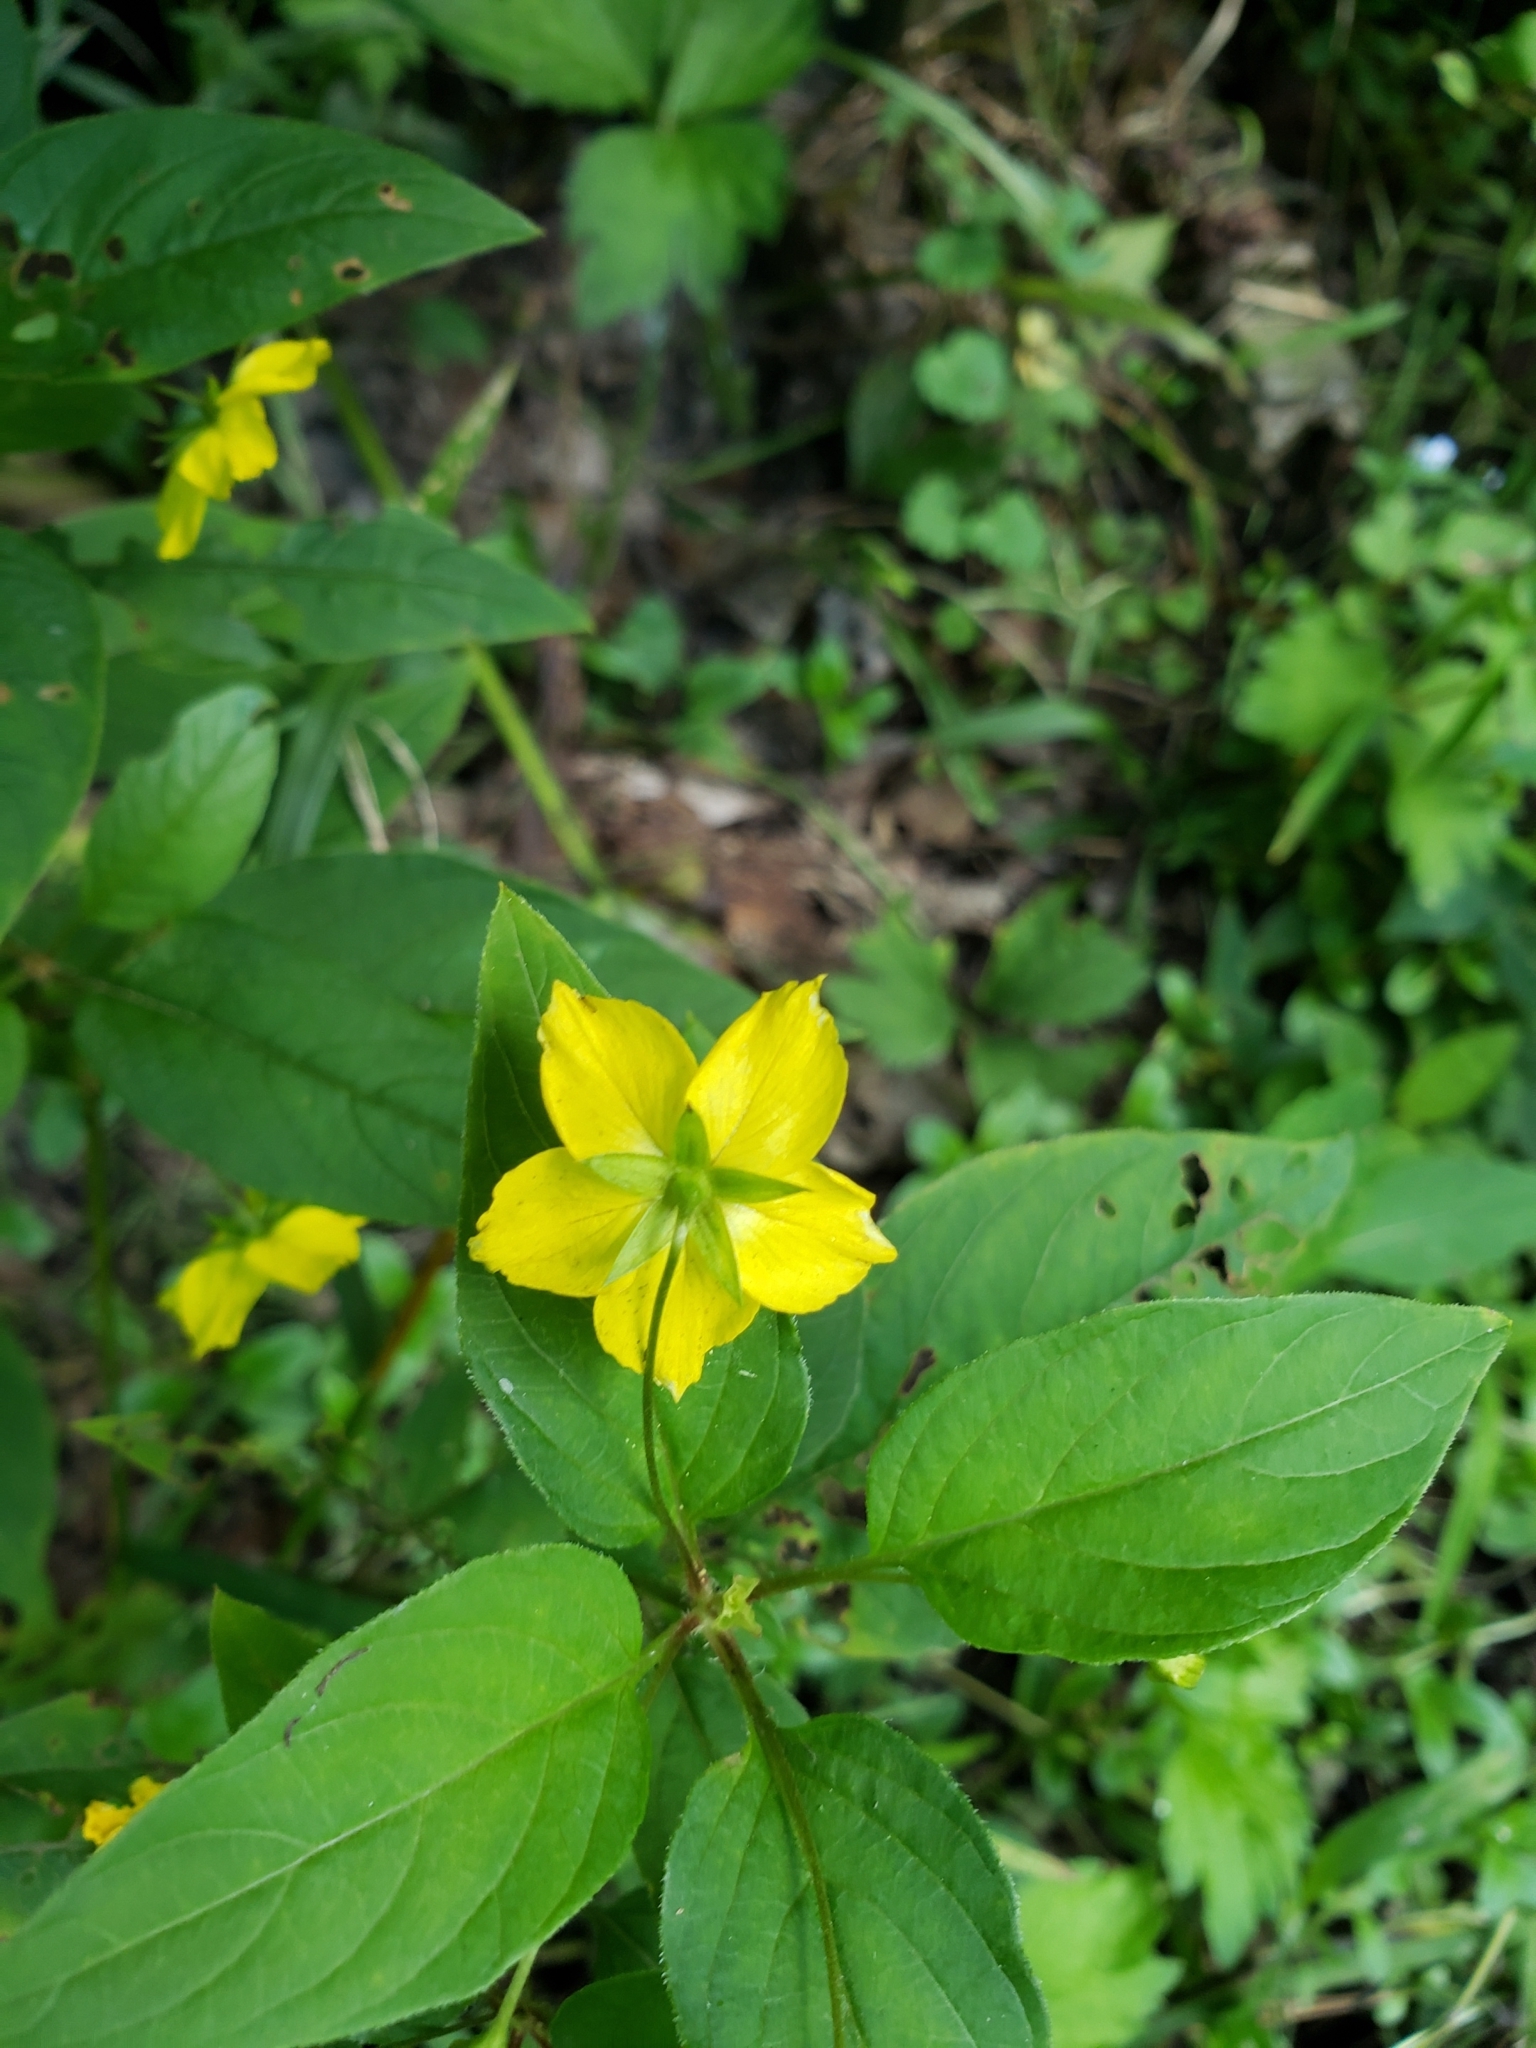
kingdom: Plantae
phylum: Tracheophyta
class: Magnoliopsida
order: Ericales
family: Primulaceae
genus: Lysimachia
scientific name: Lysimachia ciliata
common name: Fringed loosestrife
